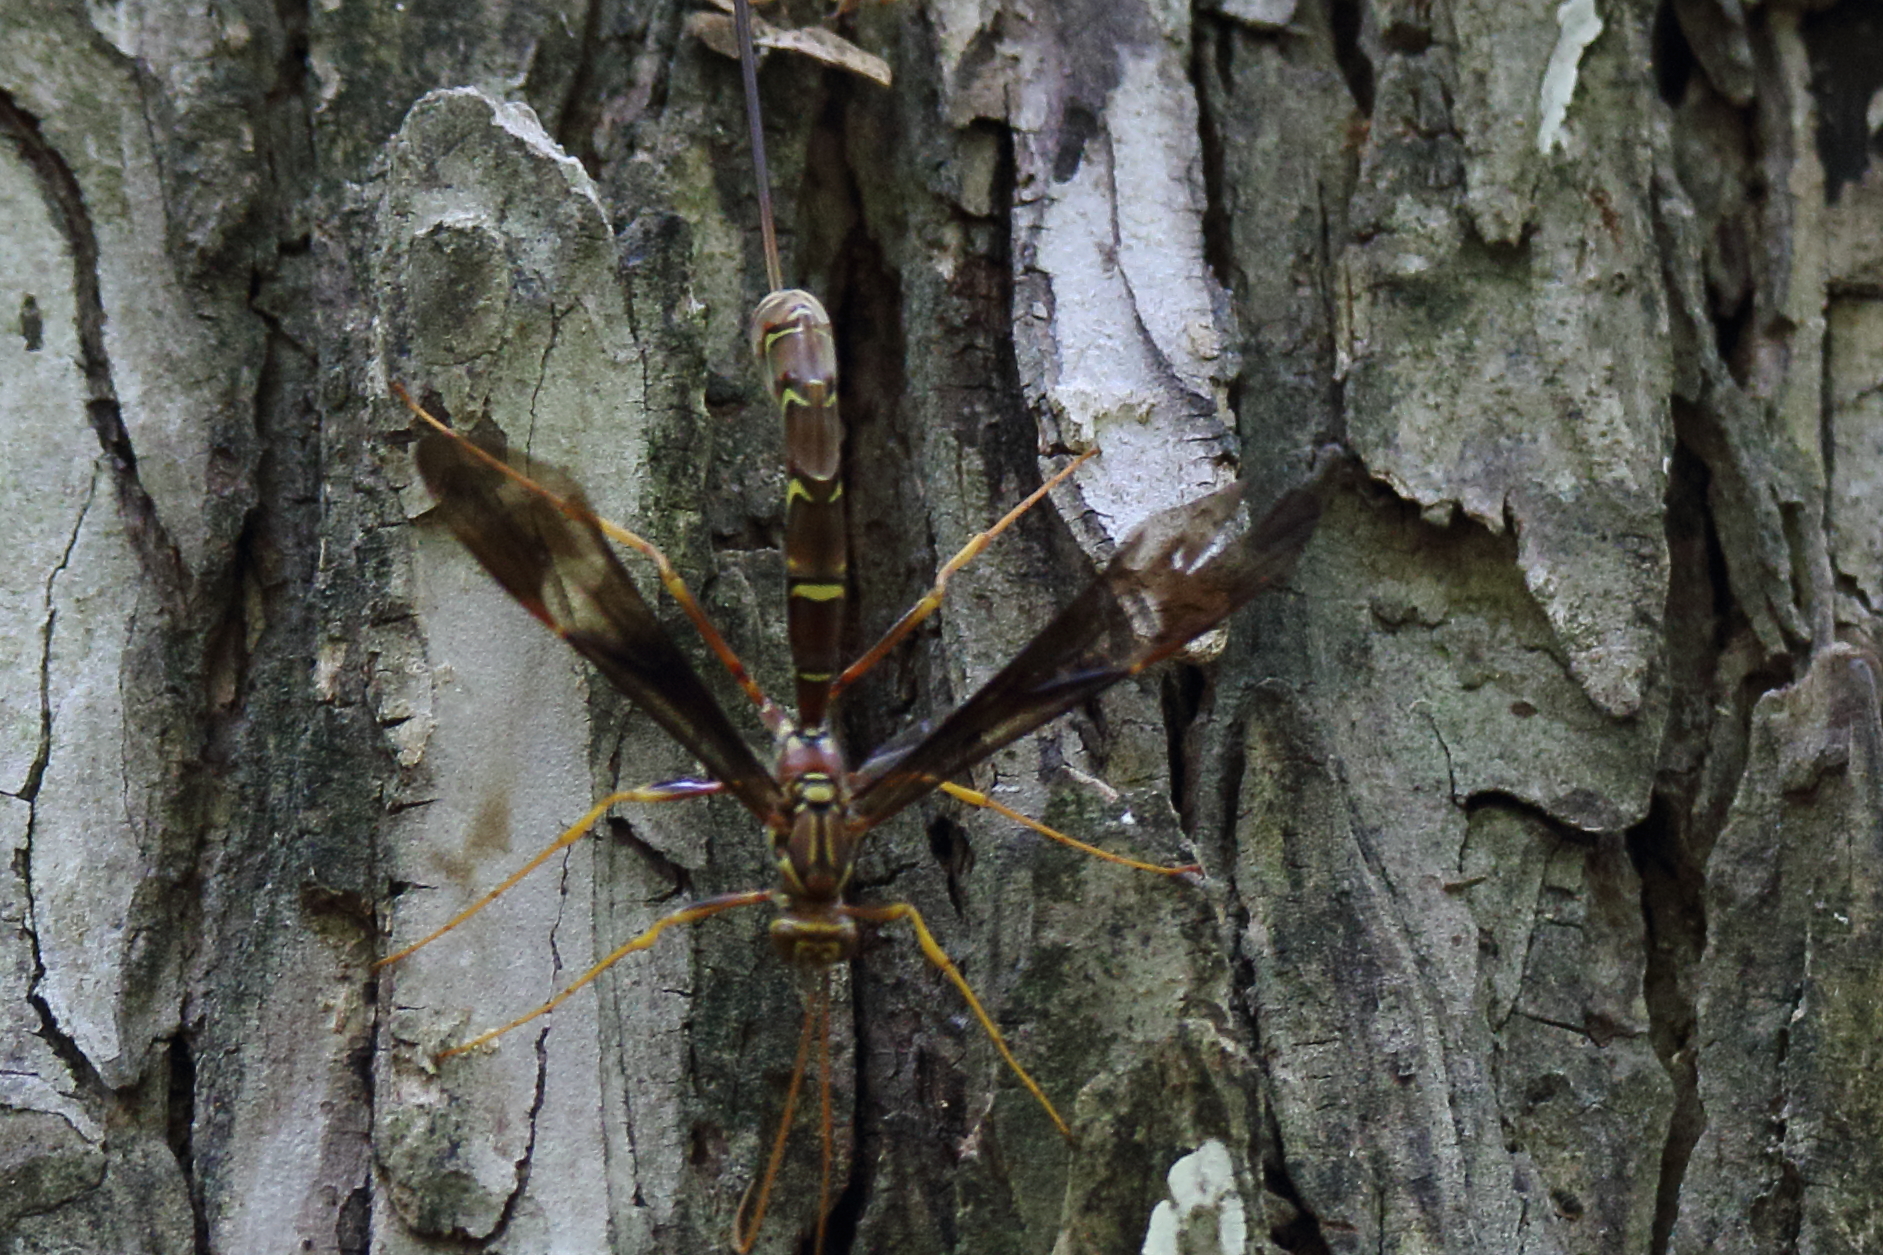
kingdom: Animalia
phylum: Arthropoda
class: Insecta
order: Hymenoptera
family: Ichneumonidae
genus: Megarhyssa
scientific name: Megarhyssa macrura
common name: Long-tailed giant ichneumonid wasp
